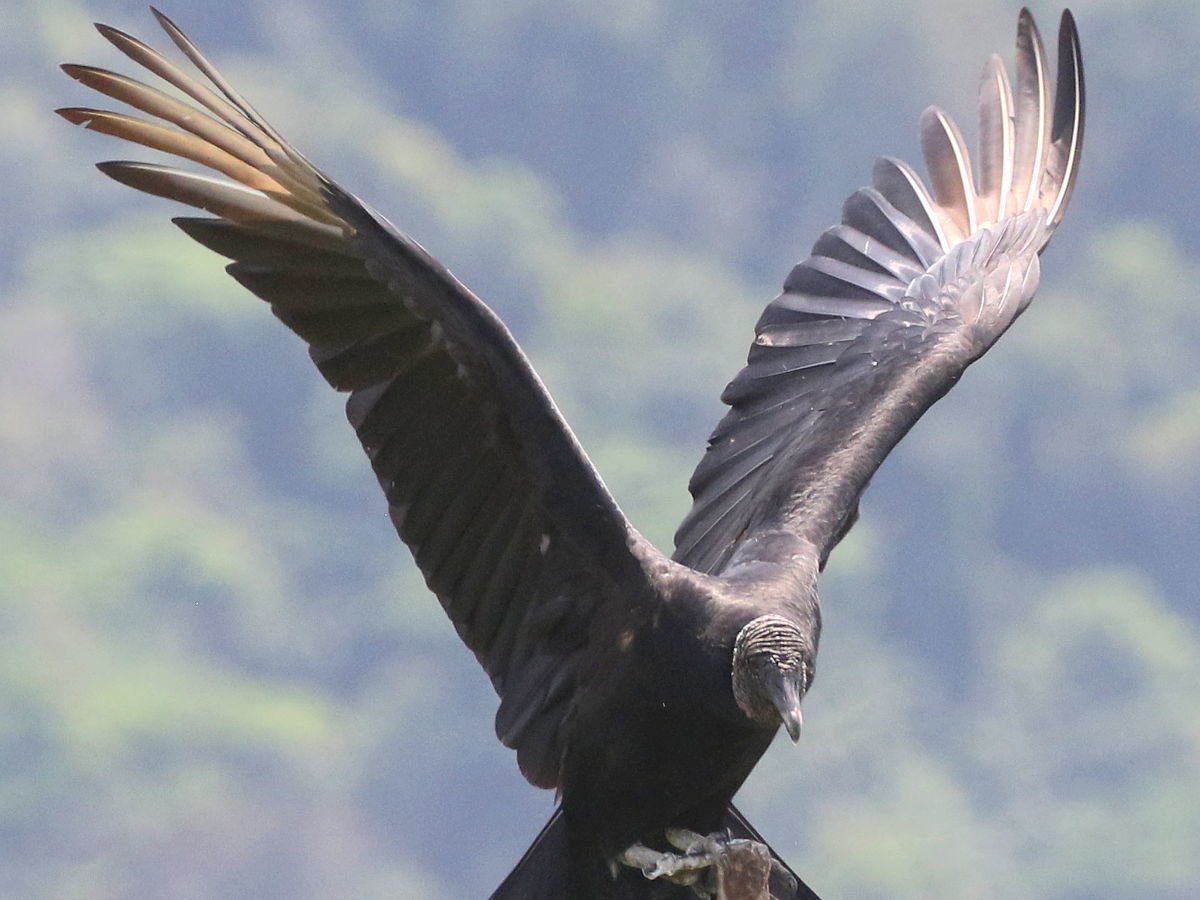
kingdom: Animalia
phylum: Chordata
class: Aves
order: Accipitriformes
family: Cathartidae
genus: Coragyps
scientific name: Coragyps atratus
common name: Black vulture
